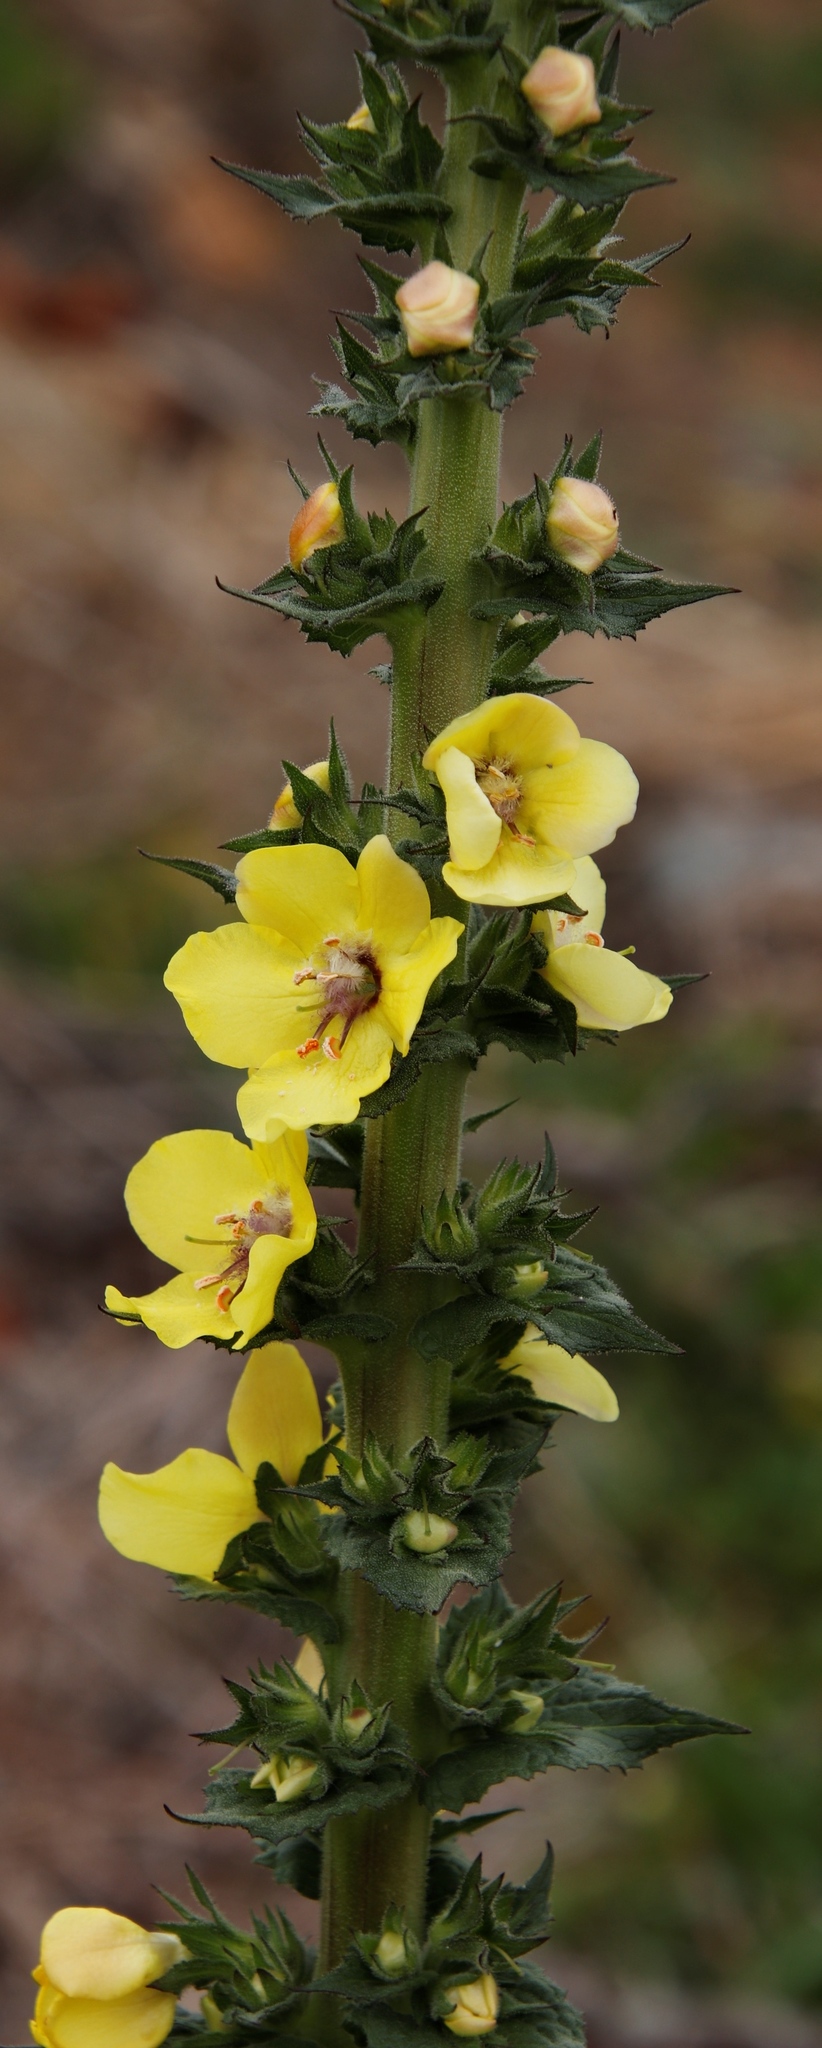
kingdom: Plantae
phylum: Tracheophyta
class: Magnoliopsida
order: Lamiales
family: Scrophulariaceae
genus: Verbascum
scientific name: Verbascum virgatum
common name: Twiggy mullein
